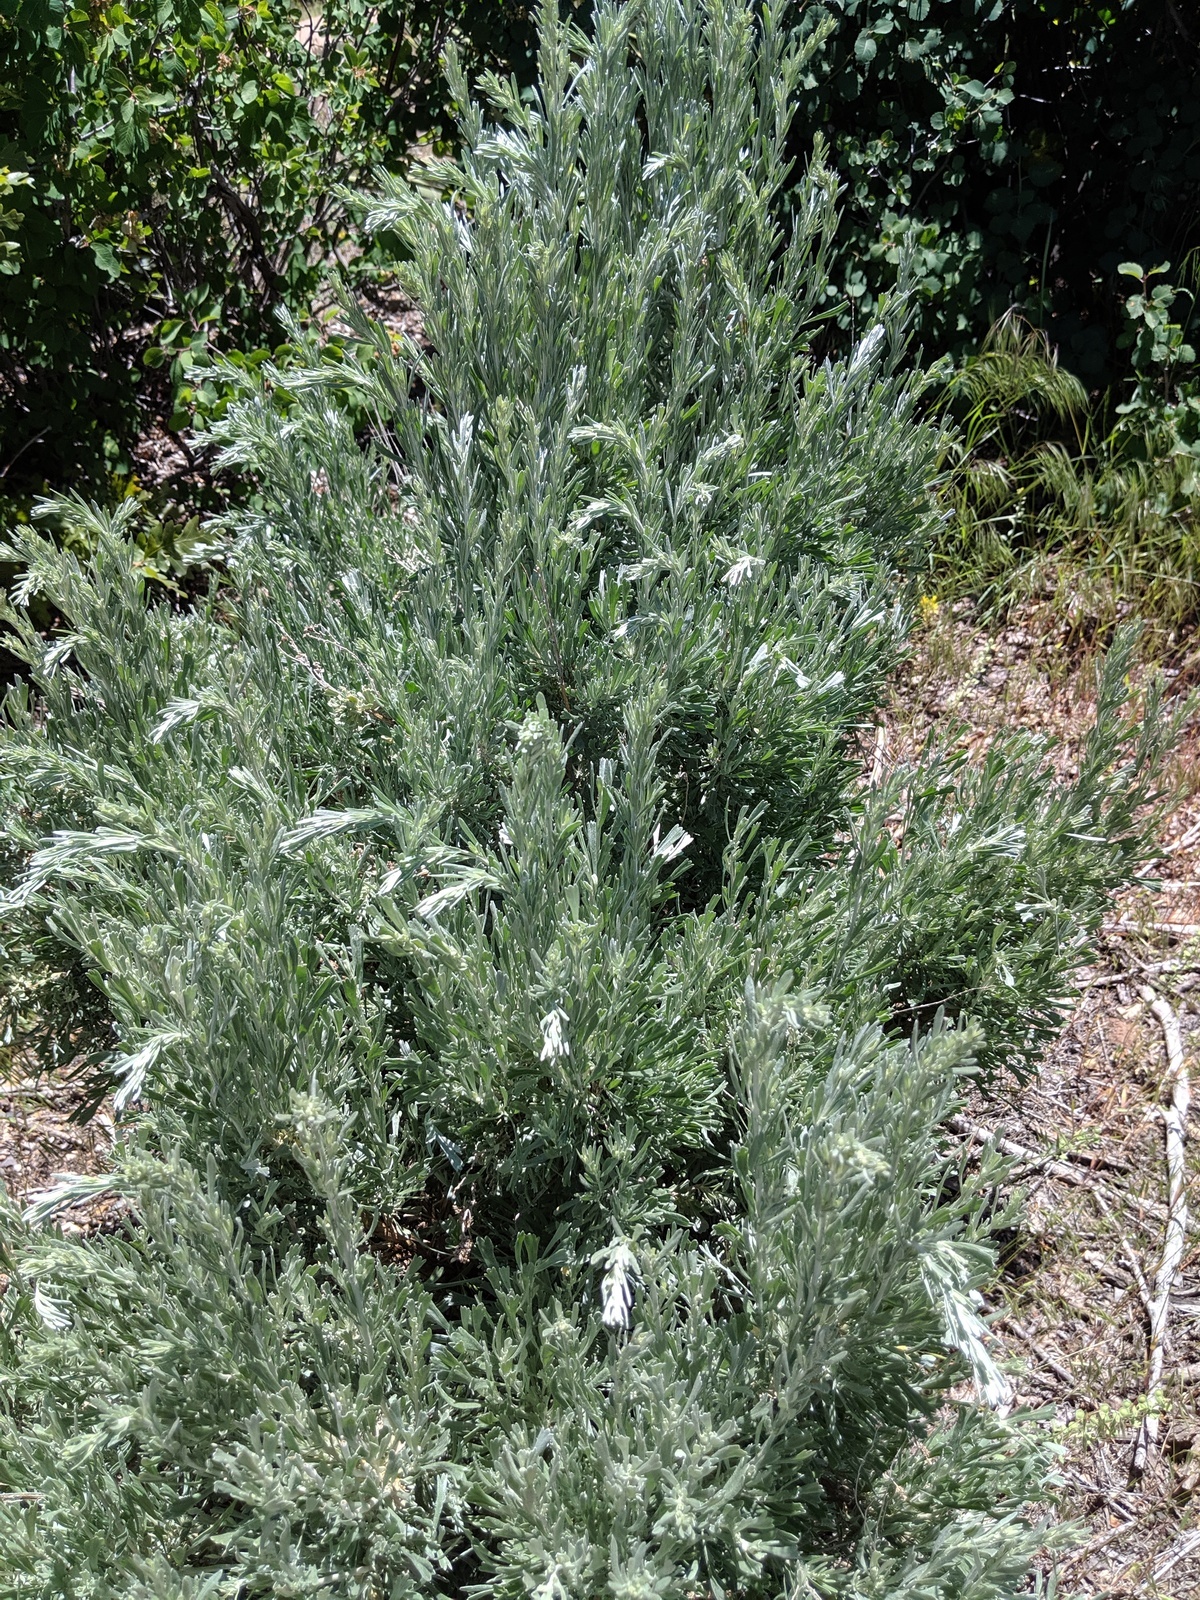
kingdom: Plantae
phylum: Tracheophyta
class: Magnoliopsida
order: Asterales
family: Asteraceae
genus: Artemisia
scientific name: Artemisia tridentata
